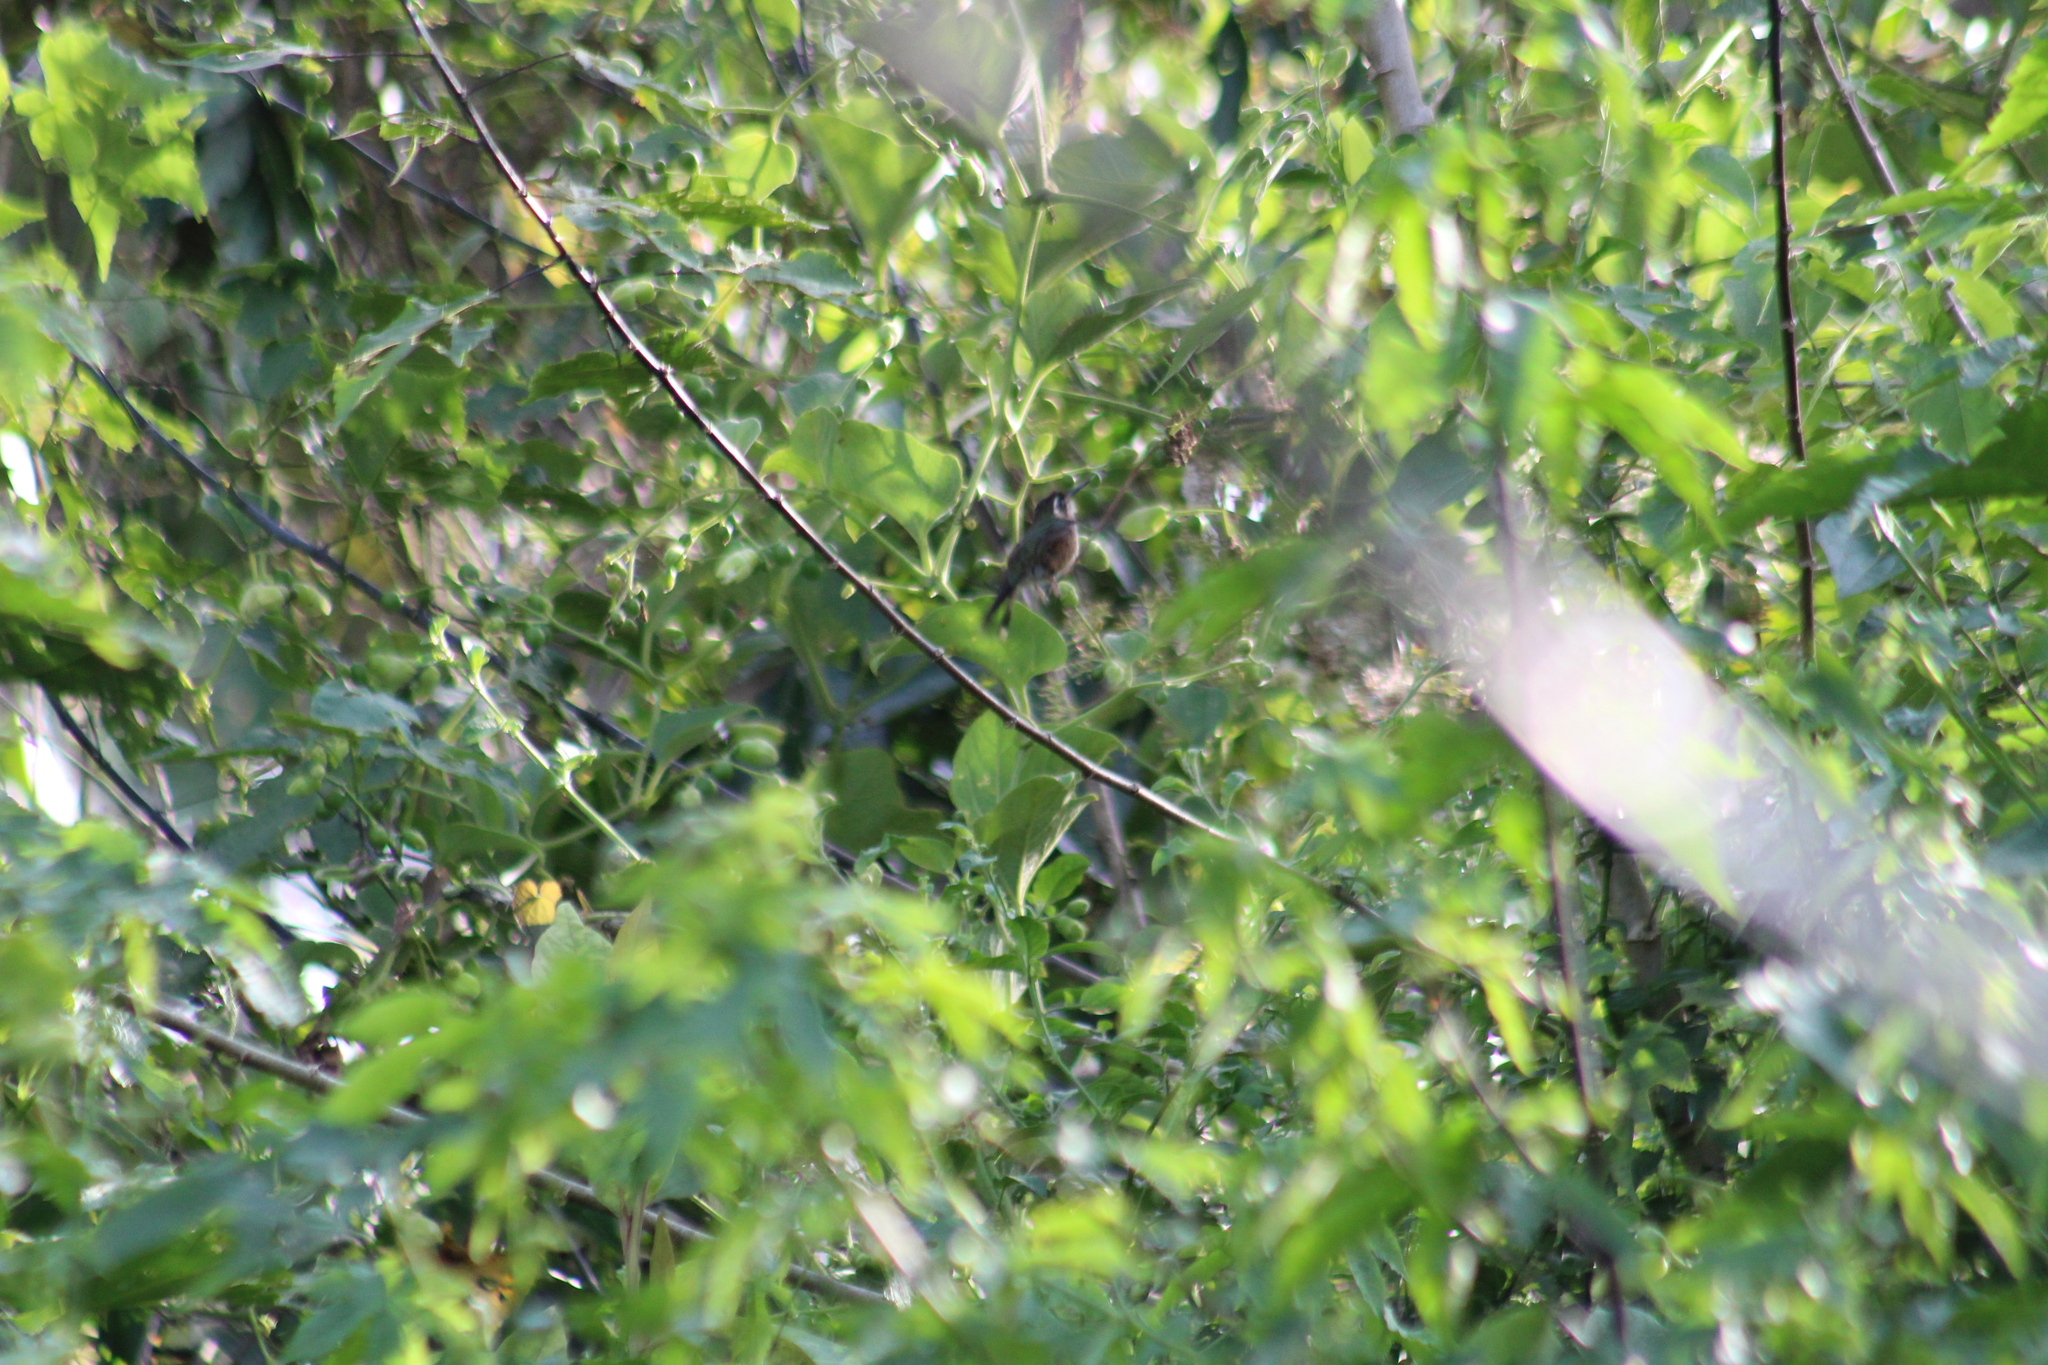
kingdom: Animalia
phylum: Chordata
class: Aves
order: Apodiformes
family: Trochilidae
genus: Phaethornis
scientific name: Phaethornis syrmatophorus
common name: Tawny-bellied hermit
